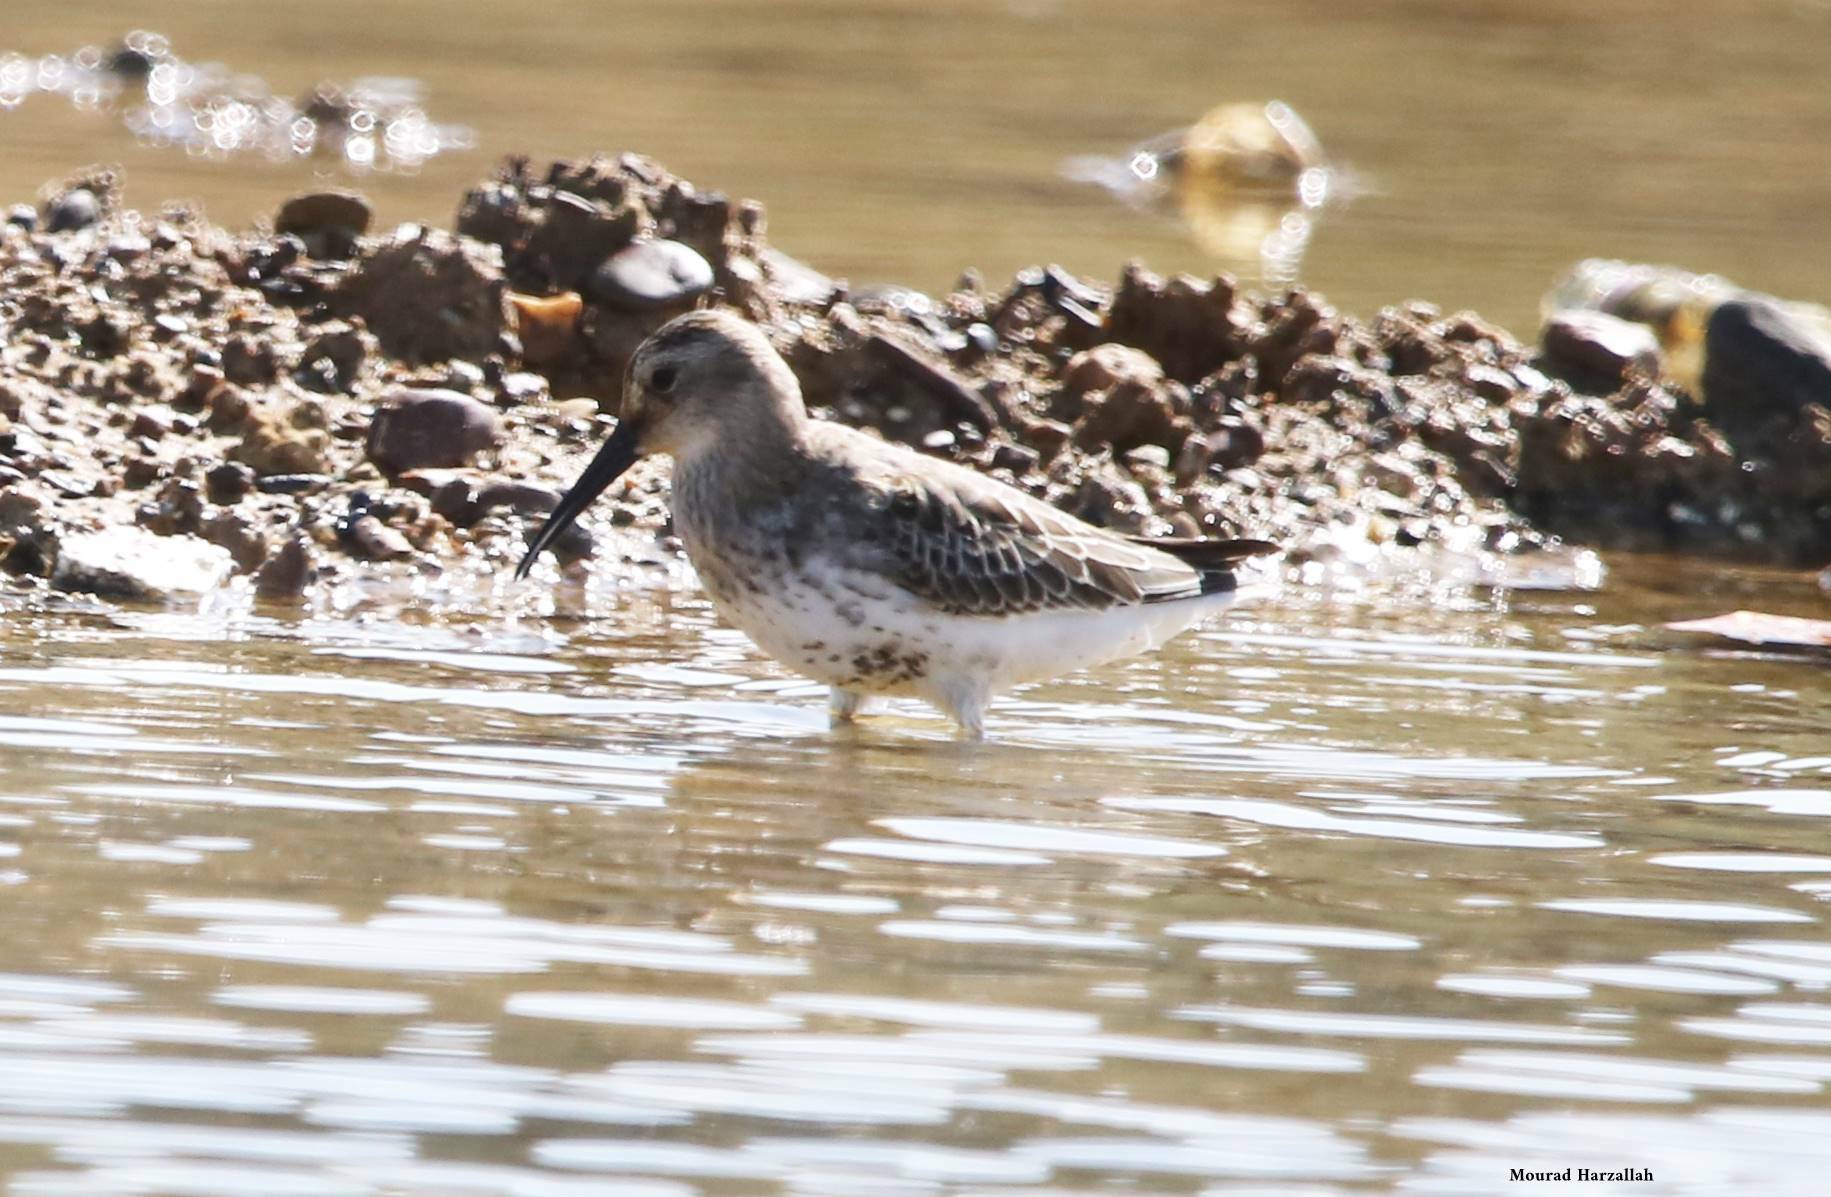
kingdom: Animalia
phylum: Chordata
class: Aves
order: Charadriiformes
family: Scolopacidae
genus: Calidris
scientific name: Calidris alpina
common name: Dunlin
